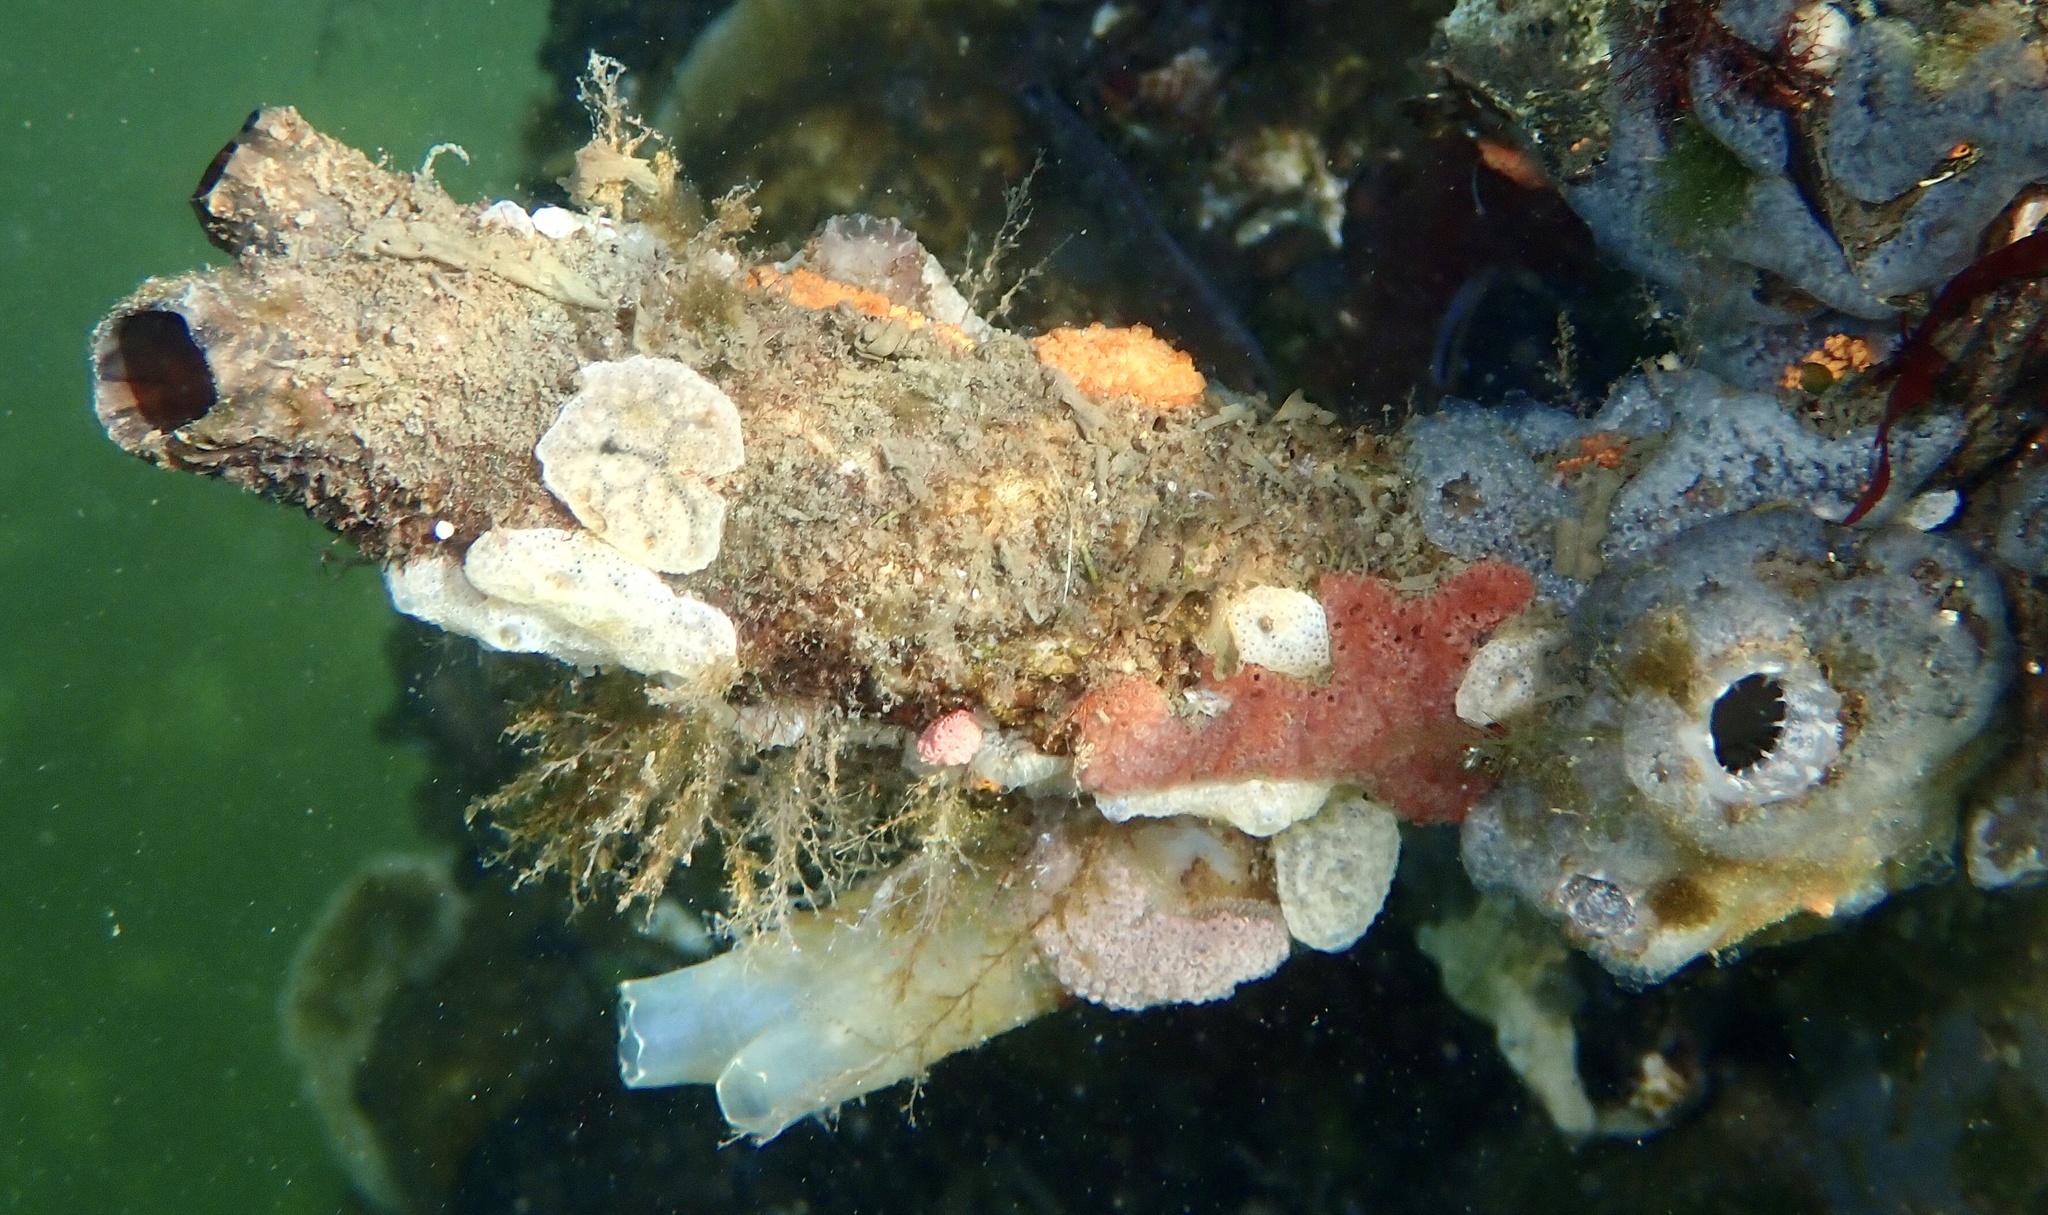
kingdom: Animalia
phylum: Chordata
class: Ascidiacea
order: Stolidobranchia
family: Styelidae
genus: Styela
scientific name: Styela clava
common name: Leathery sea squirt
